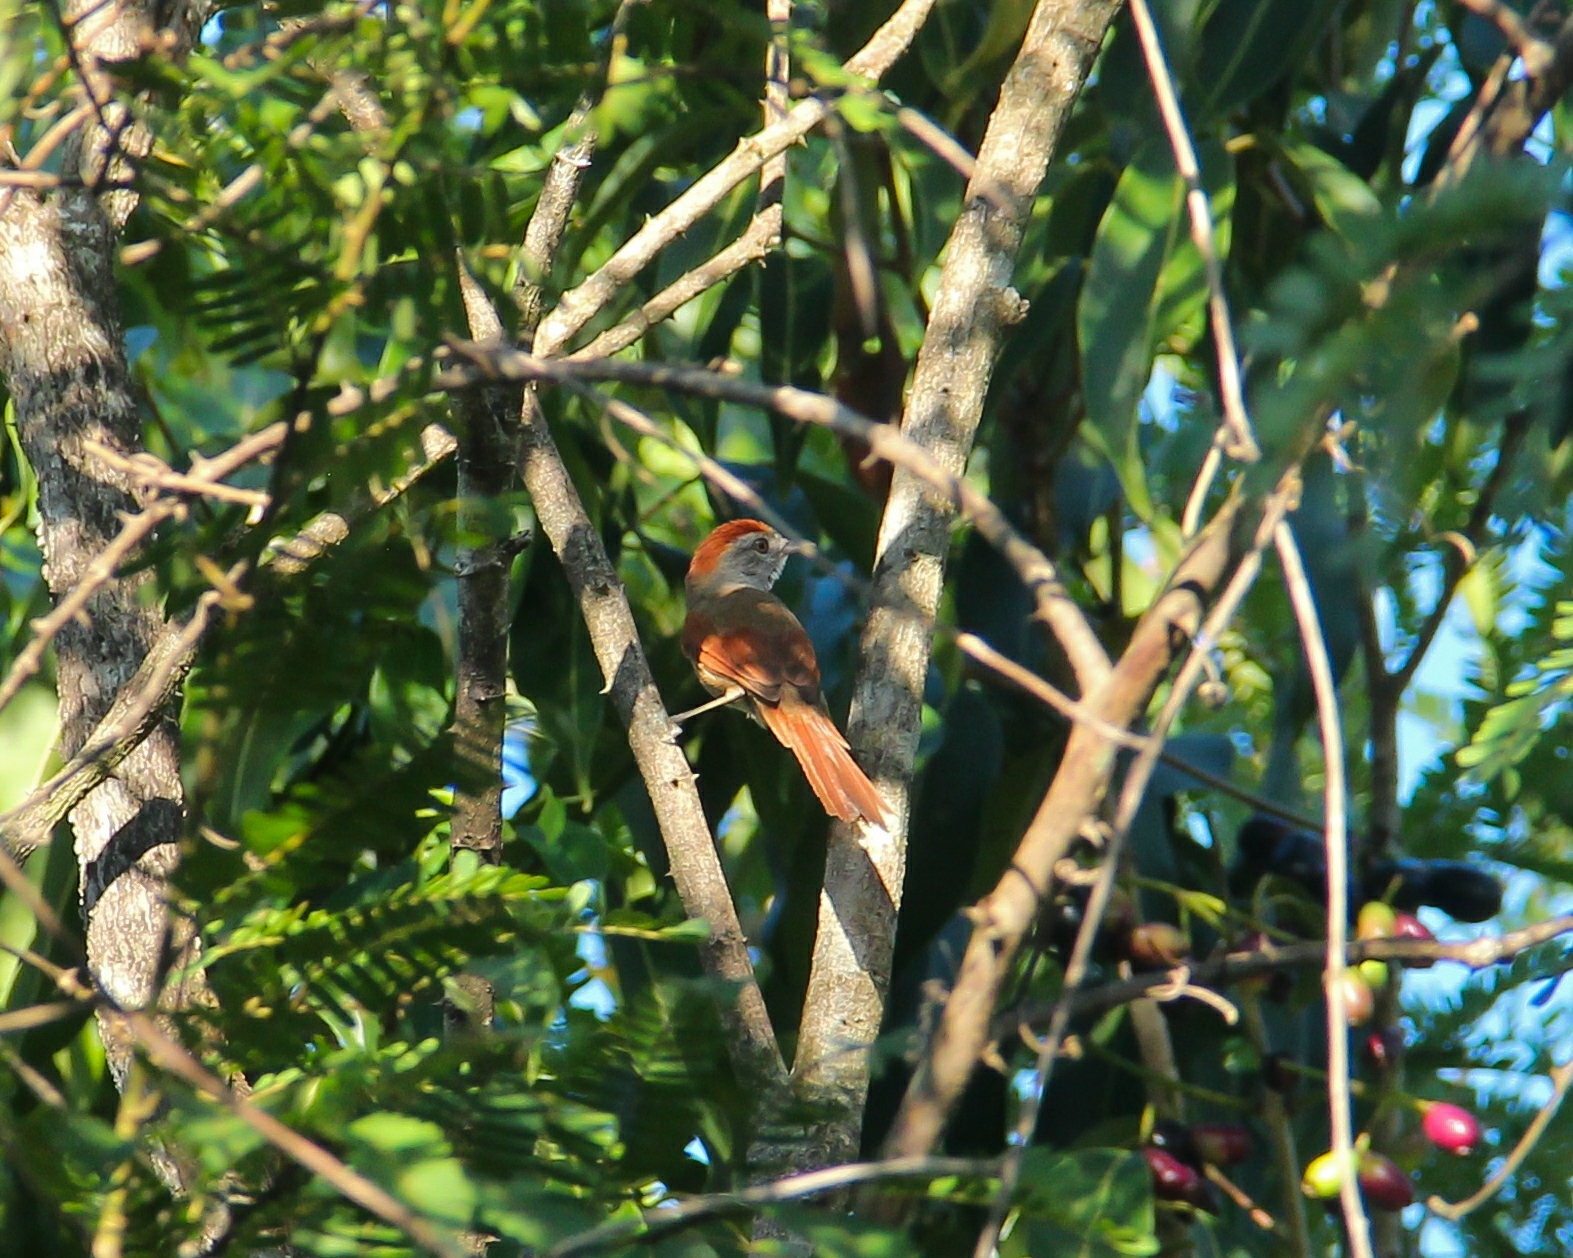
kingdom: Animalia
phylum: Chordata
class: Aves
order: Passeriformes
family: Furnariidae
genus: Synallaxis
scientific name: Synallaxis frontalis
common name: Sooty-fronted spinetail
